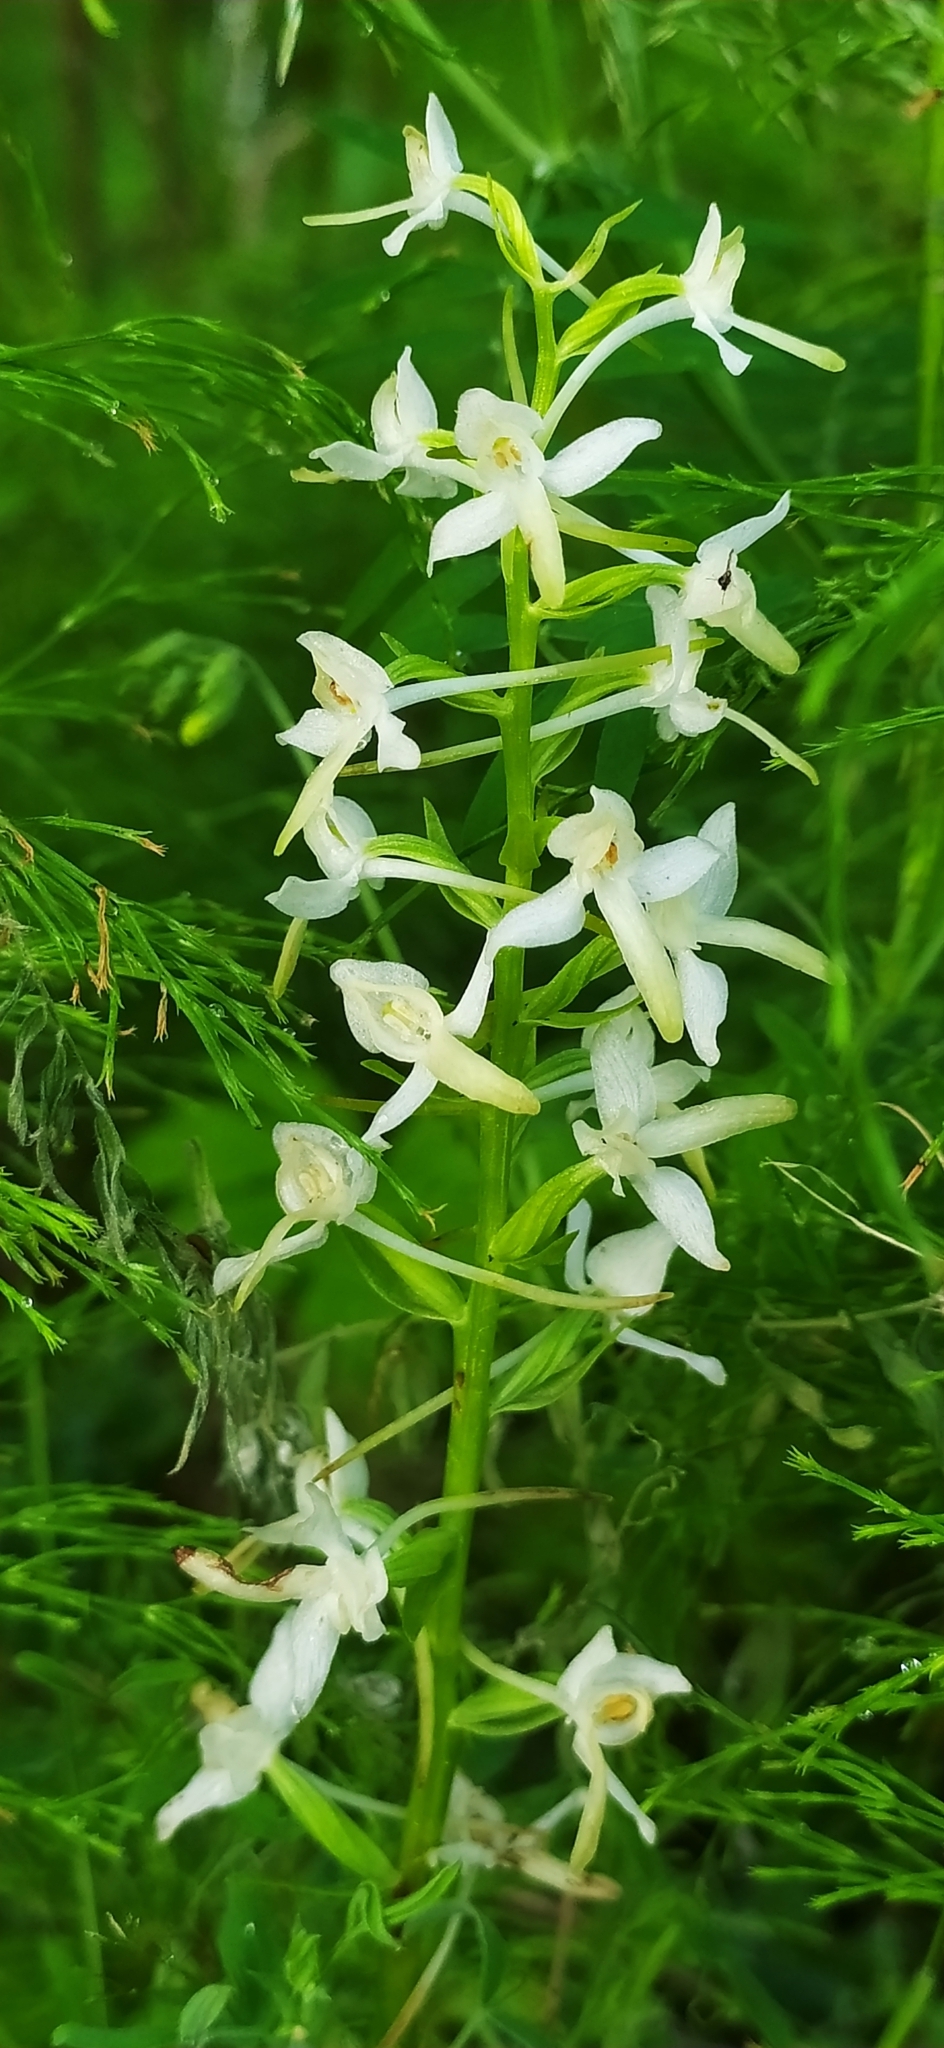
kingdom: Plantae
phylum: Tracheophyta
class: Liliopsida
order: Asparagales
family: Orchidaceae
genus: Platanthera
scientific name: Platanthera bifolia
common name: Lesser butterfly-orchid
